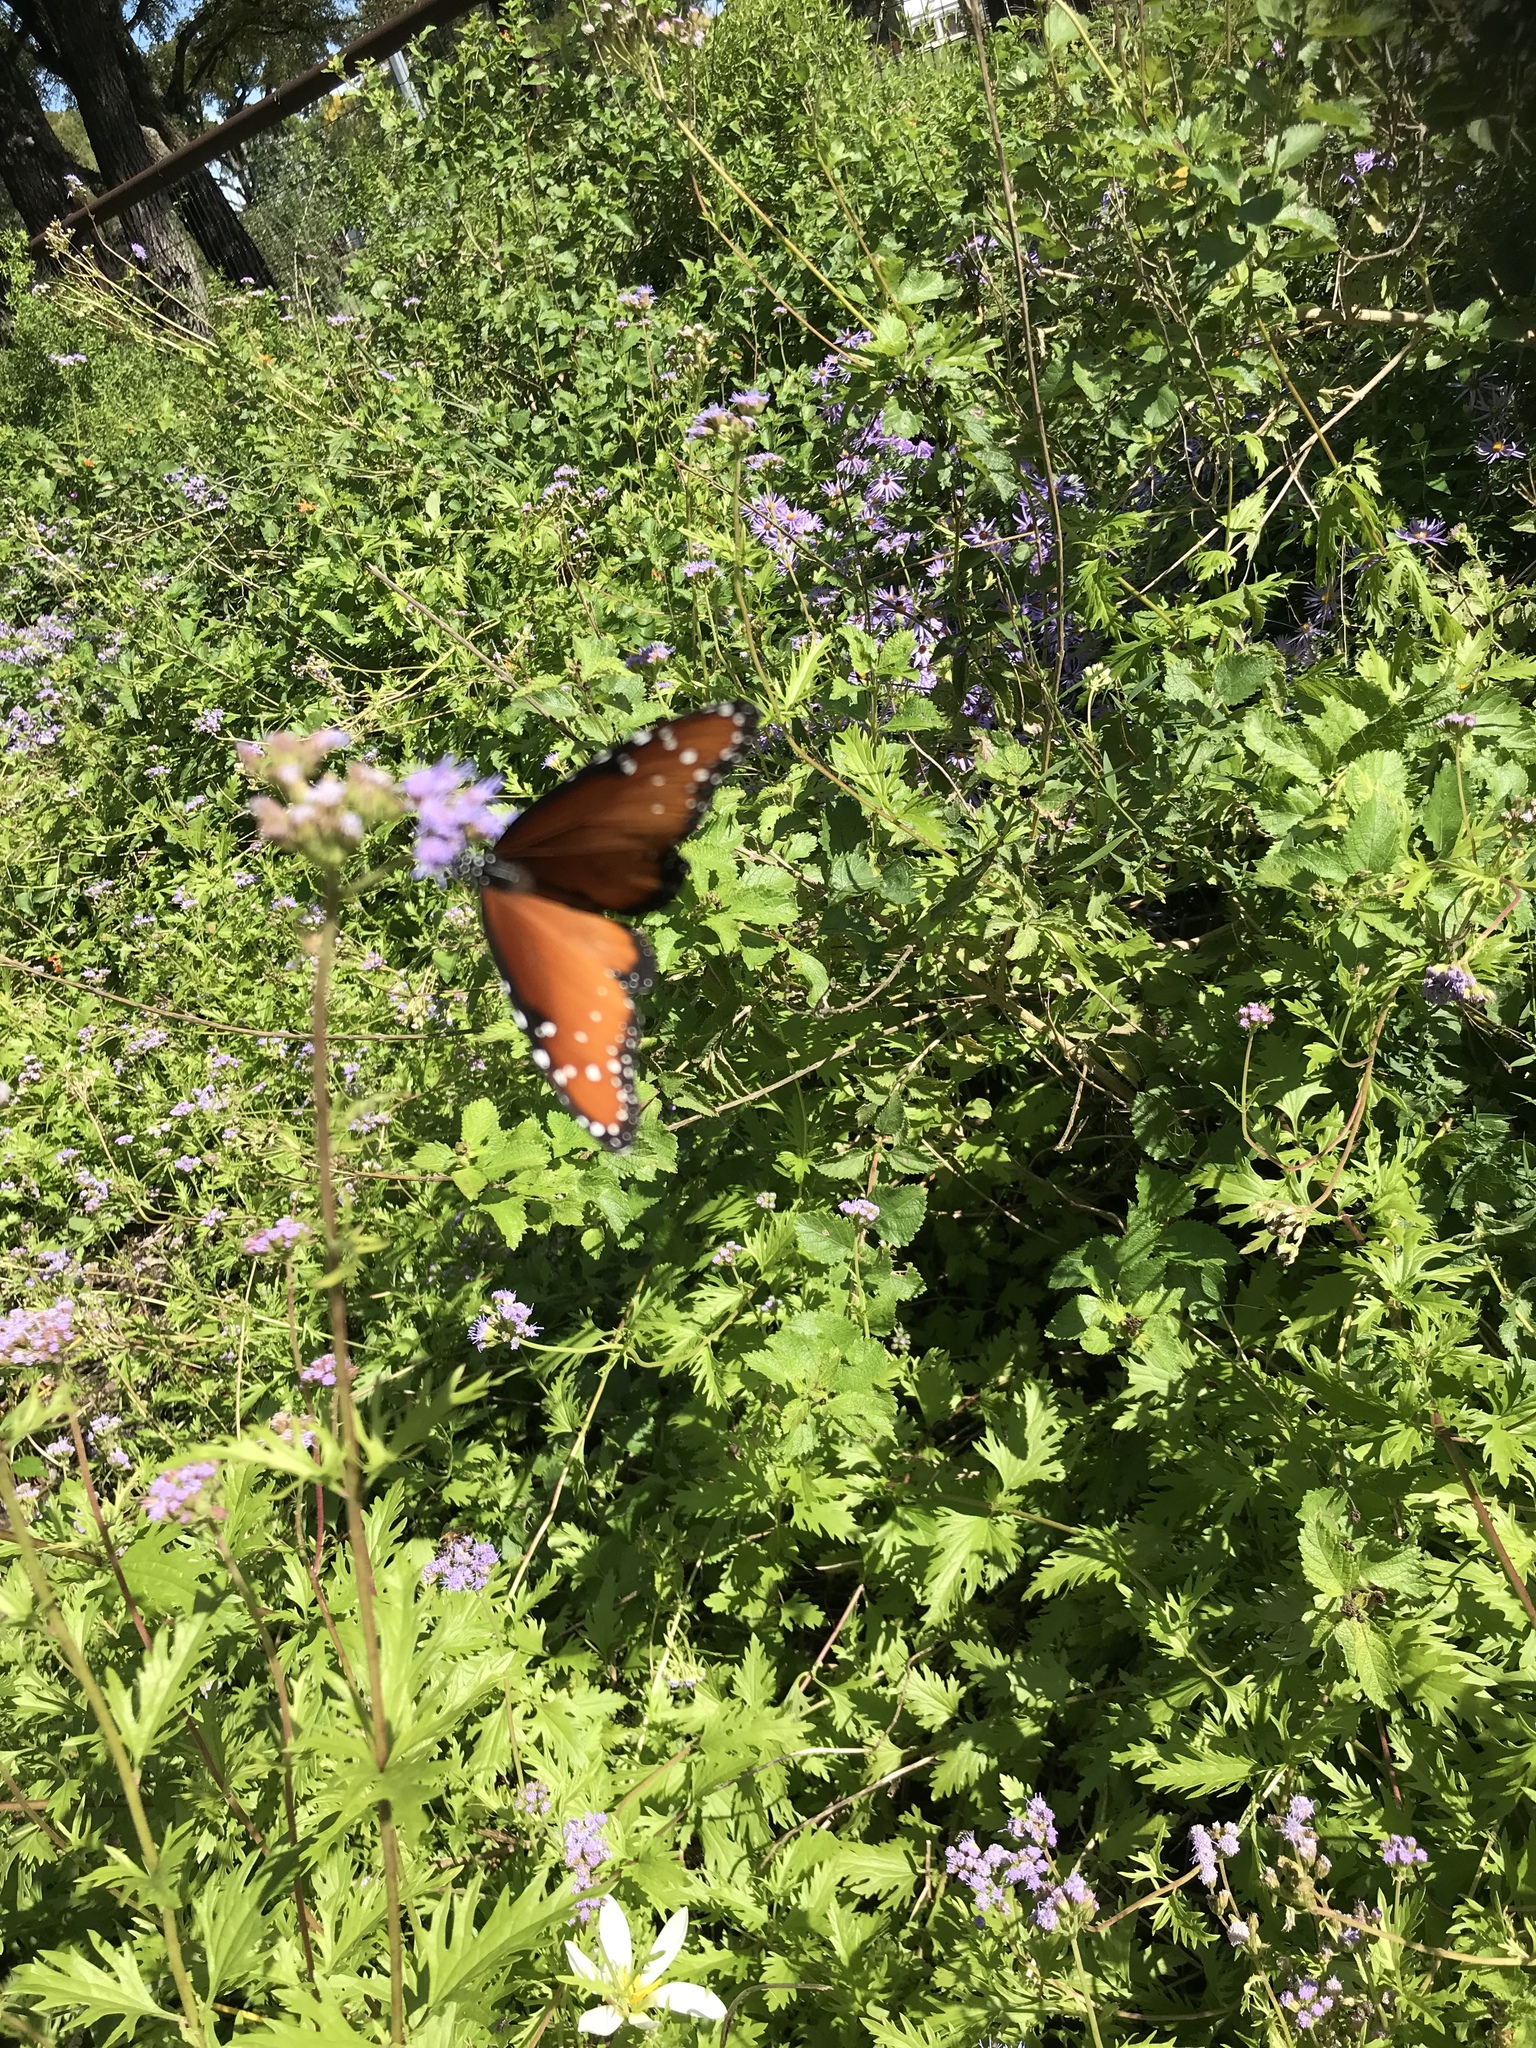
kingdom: Animalia
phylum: Arthropoda
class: Insecta
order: Lepidoptera
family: Nymphalidae
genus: Danaus
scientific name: Danaus gilippus
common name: Queen
